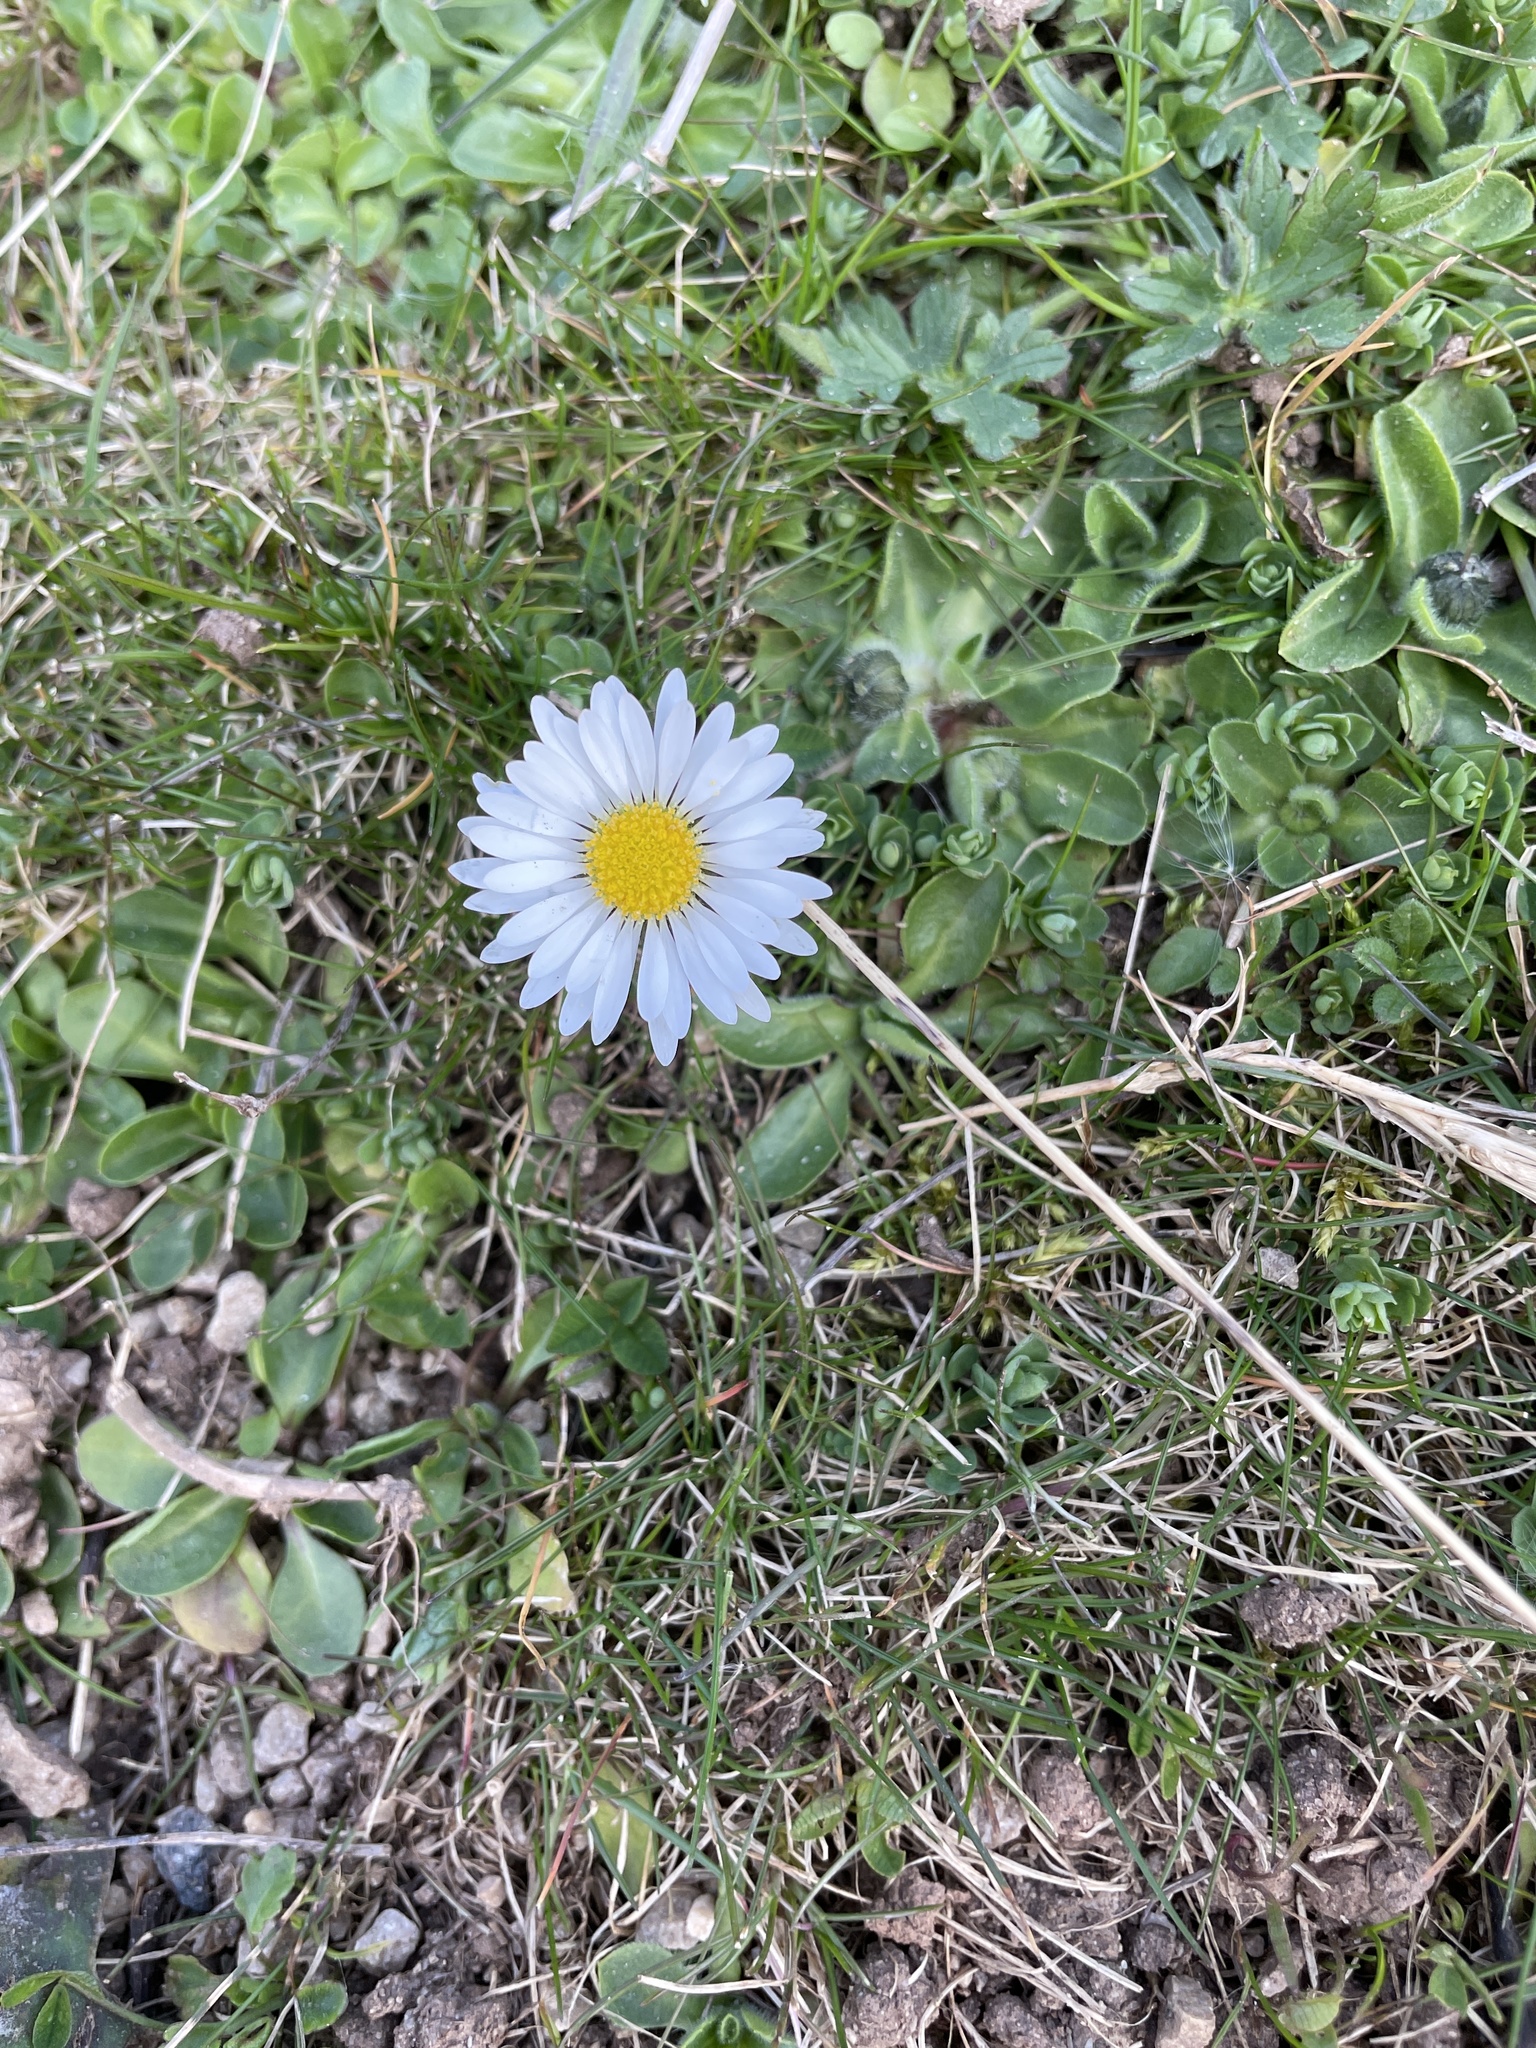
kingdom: Plantae
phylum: Tracheophyta
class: Magnoliopsida
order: Asterales
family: Asteraceae
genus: Bellis
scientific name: Bellis perennis
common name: Lawndaisy
